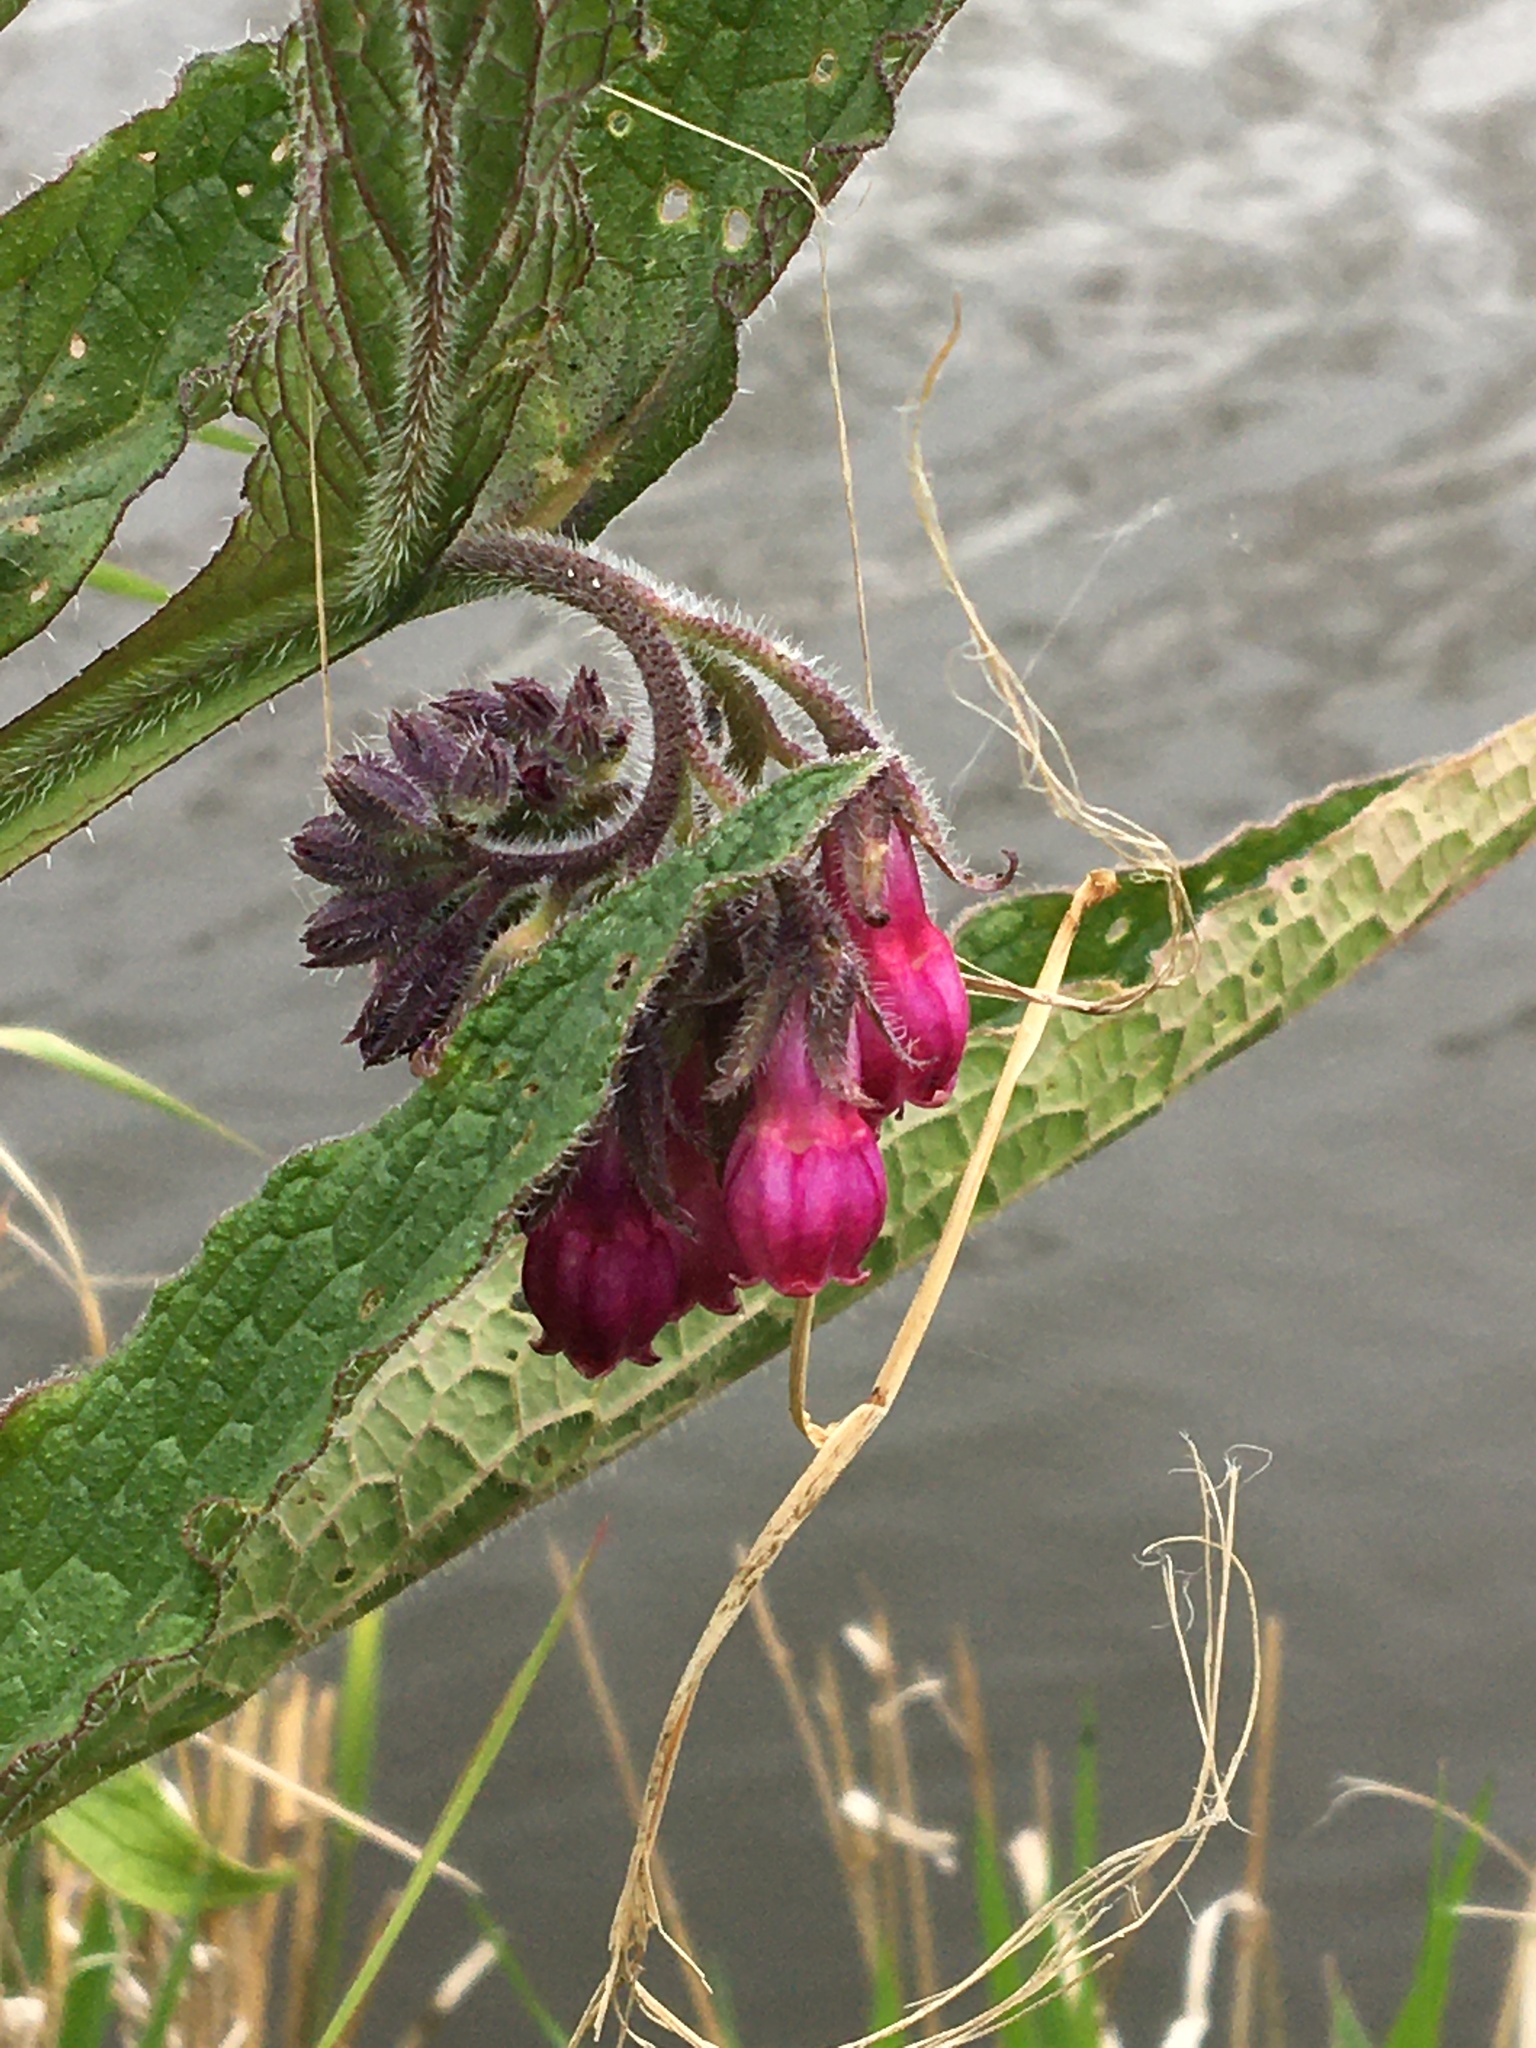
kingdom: Plantae
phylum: Tracheophyta
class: Magnoliopsida
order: Boraginales
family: Boraginaceae
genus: Symphytum
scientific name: Symphytum officinale
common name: Common comfrey
